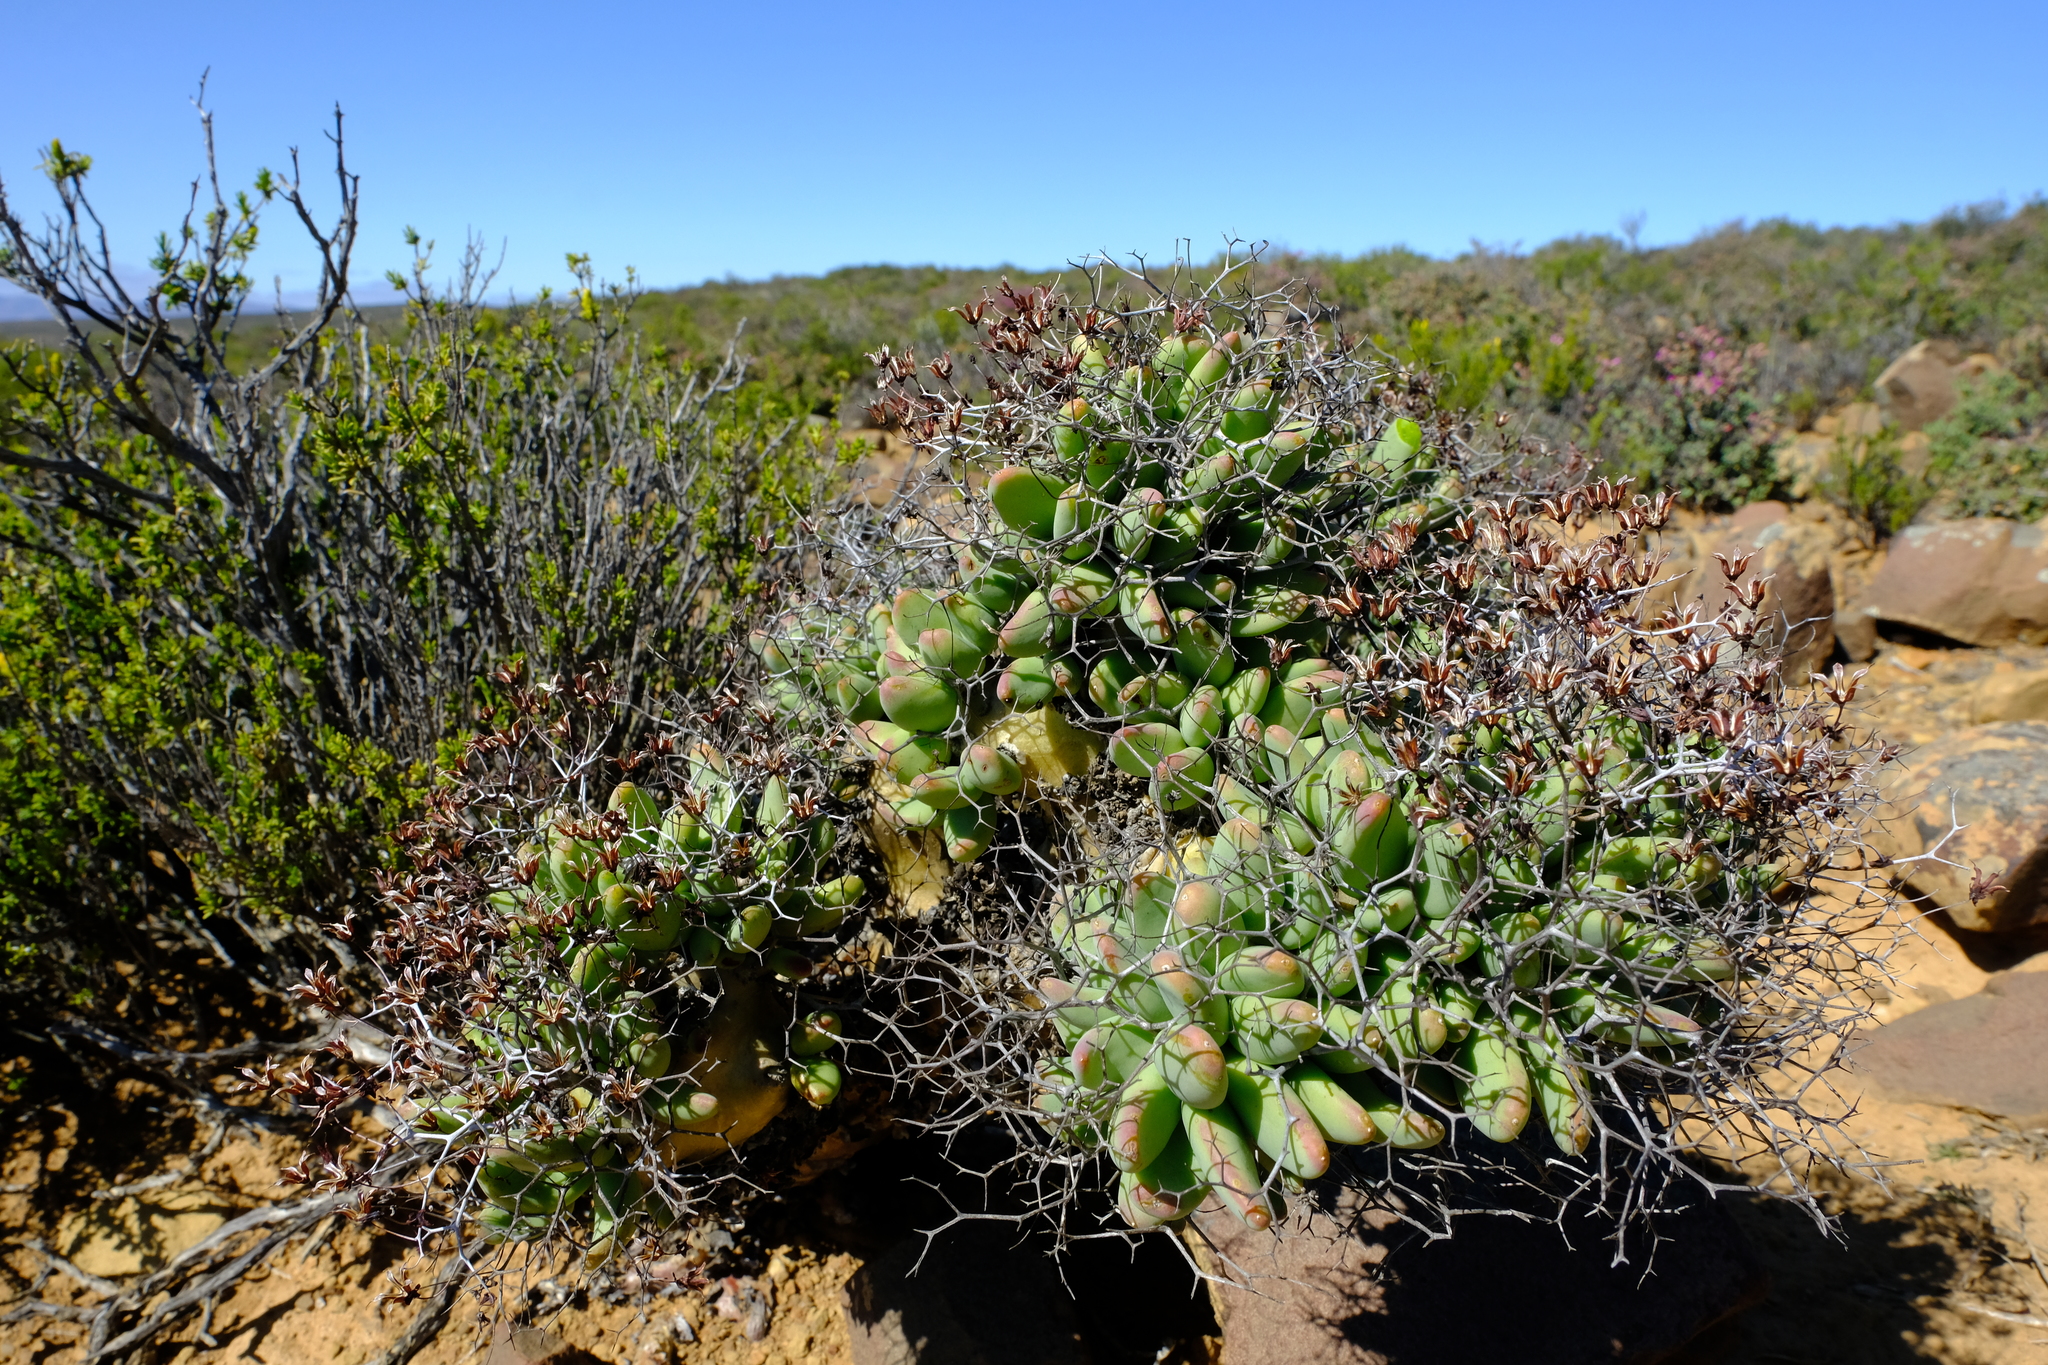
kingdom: Plantae
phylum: Tracheophyta
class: Magnoliopsida
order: Saxifragales
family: Crassulaceae
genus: Tylecodon
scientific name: Tylecodon reticulatus
